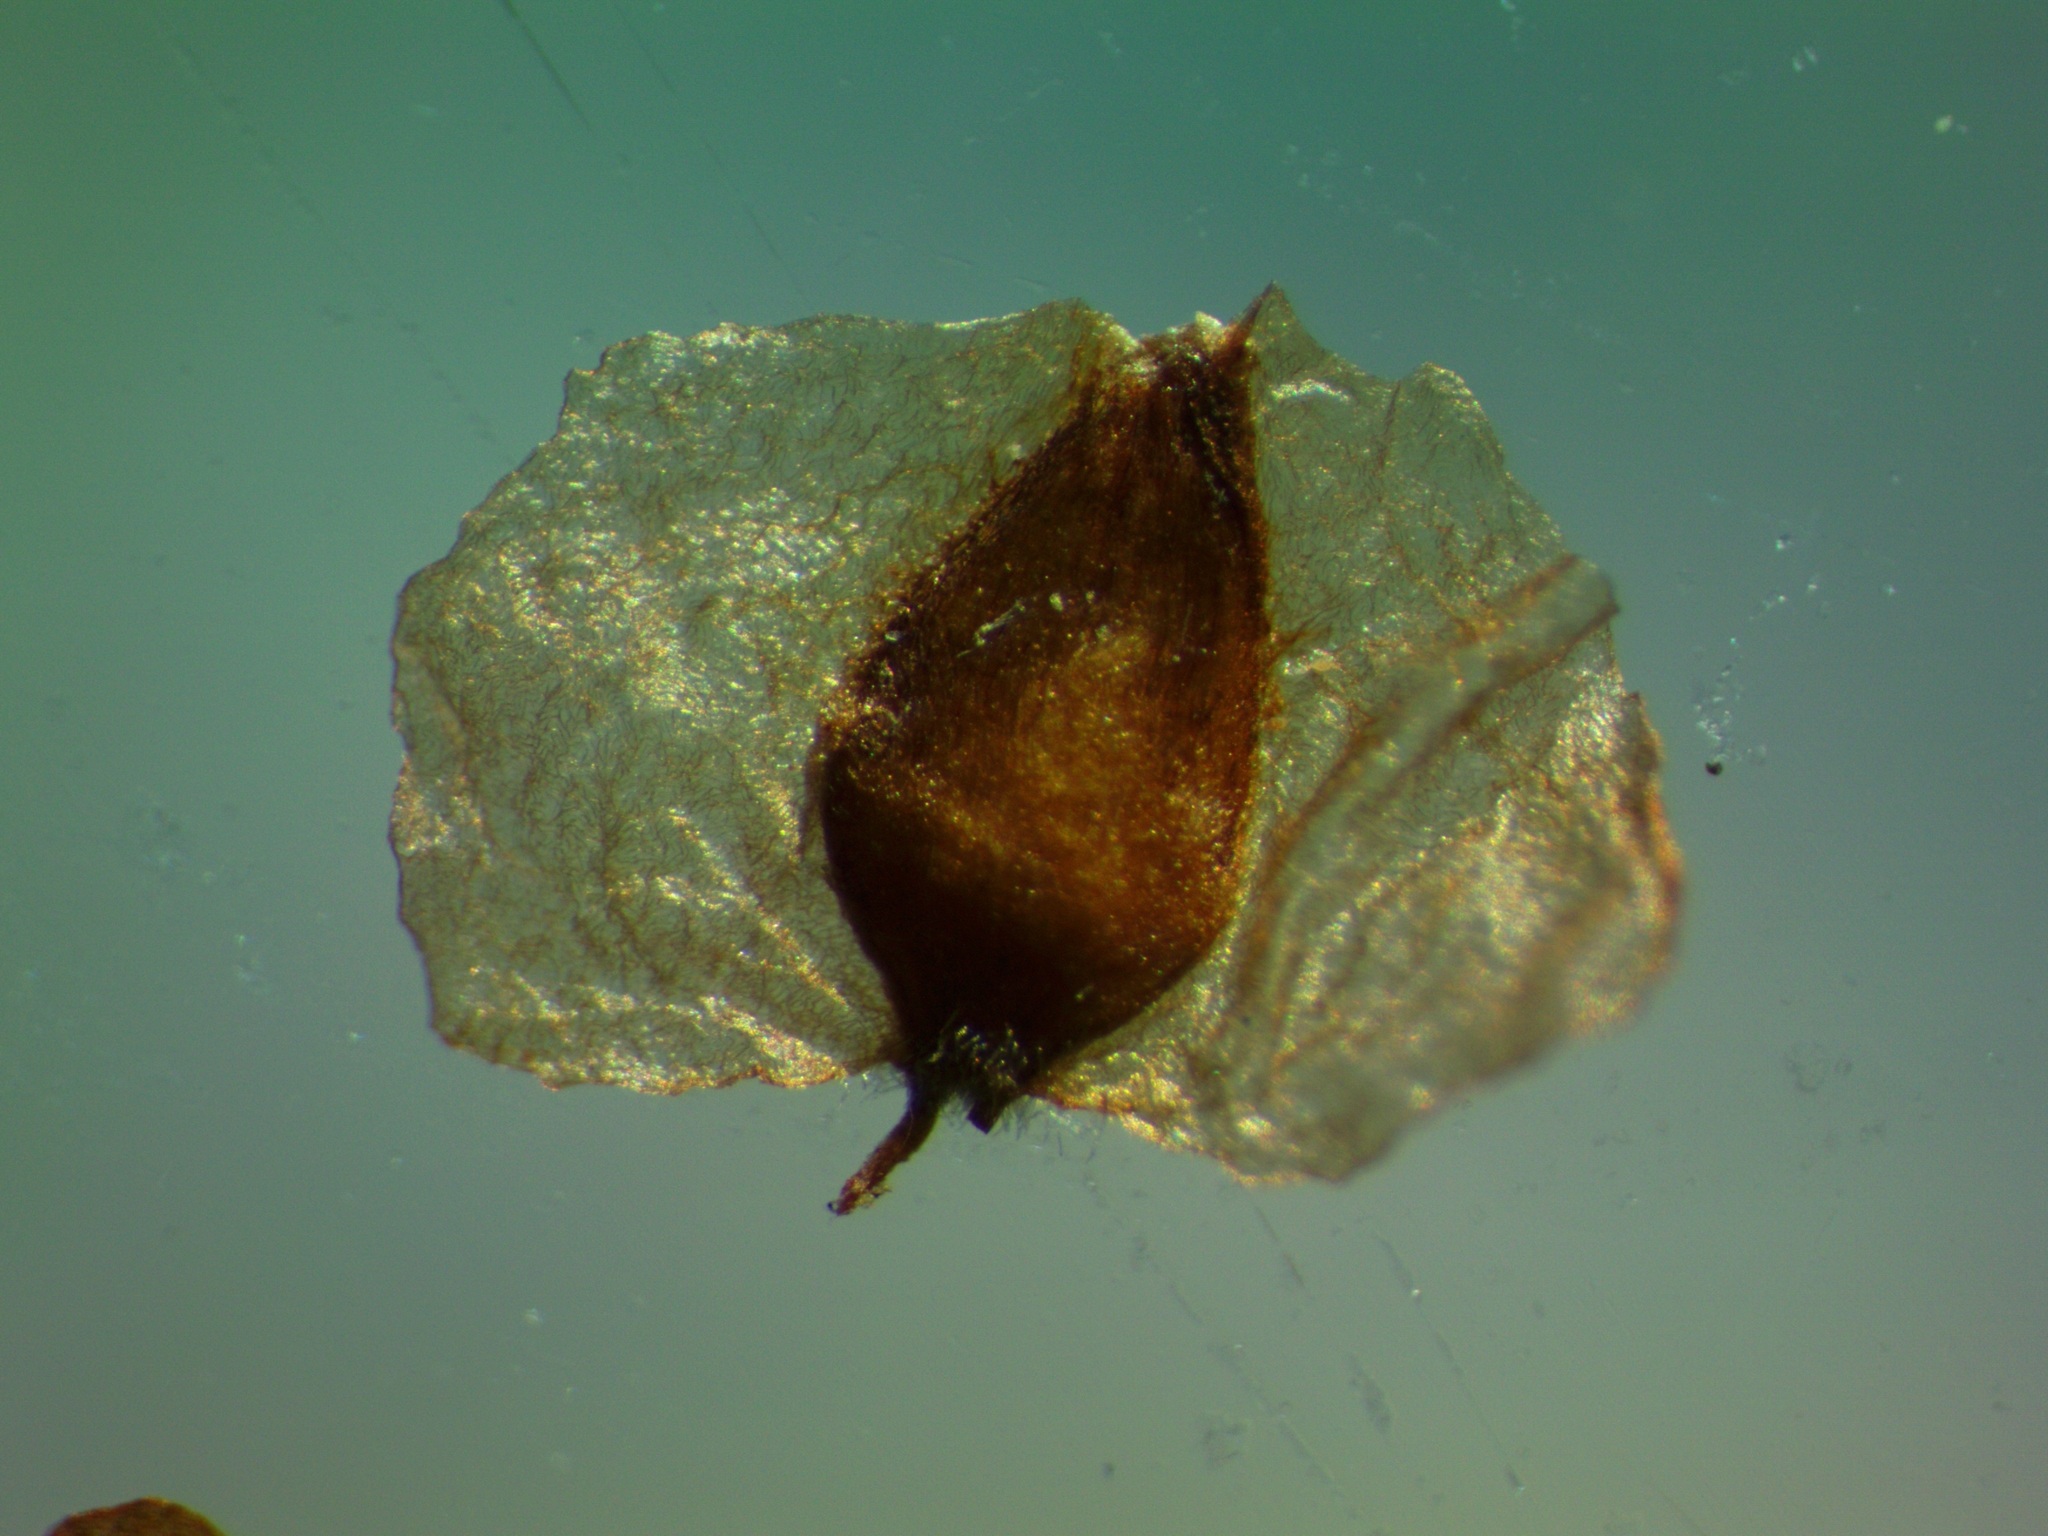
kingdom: Plantae
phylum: Tracheophyta
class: Magnoliopsida
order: Fagales
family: Betulaceae
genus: Betula
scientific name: Betula pendula
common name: Silver birch
